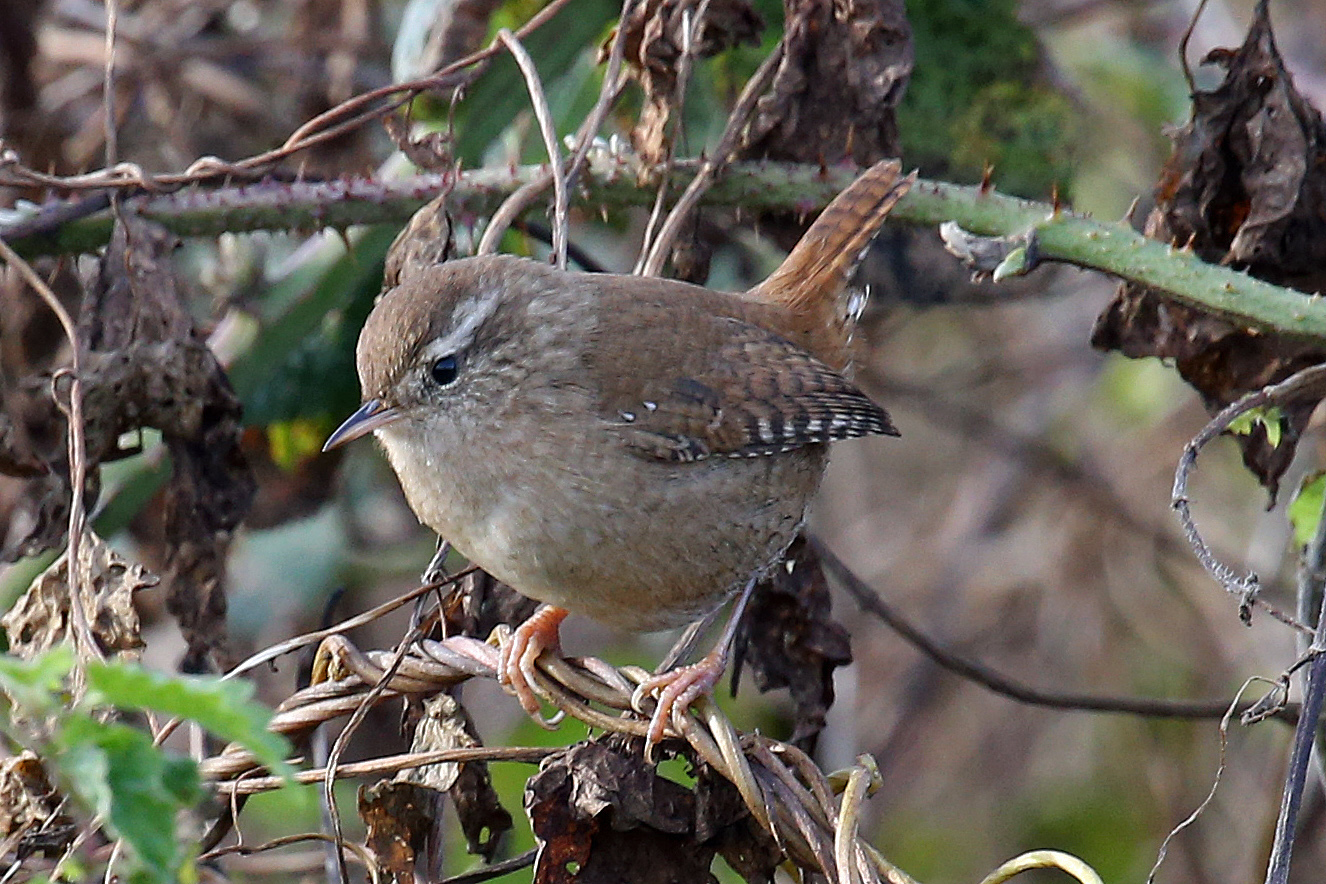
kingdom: Animalia
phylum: Chordata
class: Aves
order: Passeriformes
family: Troglodytidae
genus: Troglodytes
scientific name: Troglodytes troglodytes
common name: Eurasian wren
